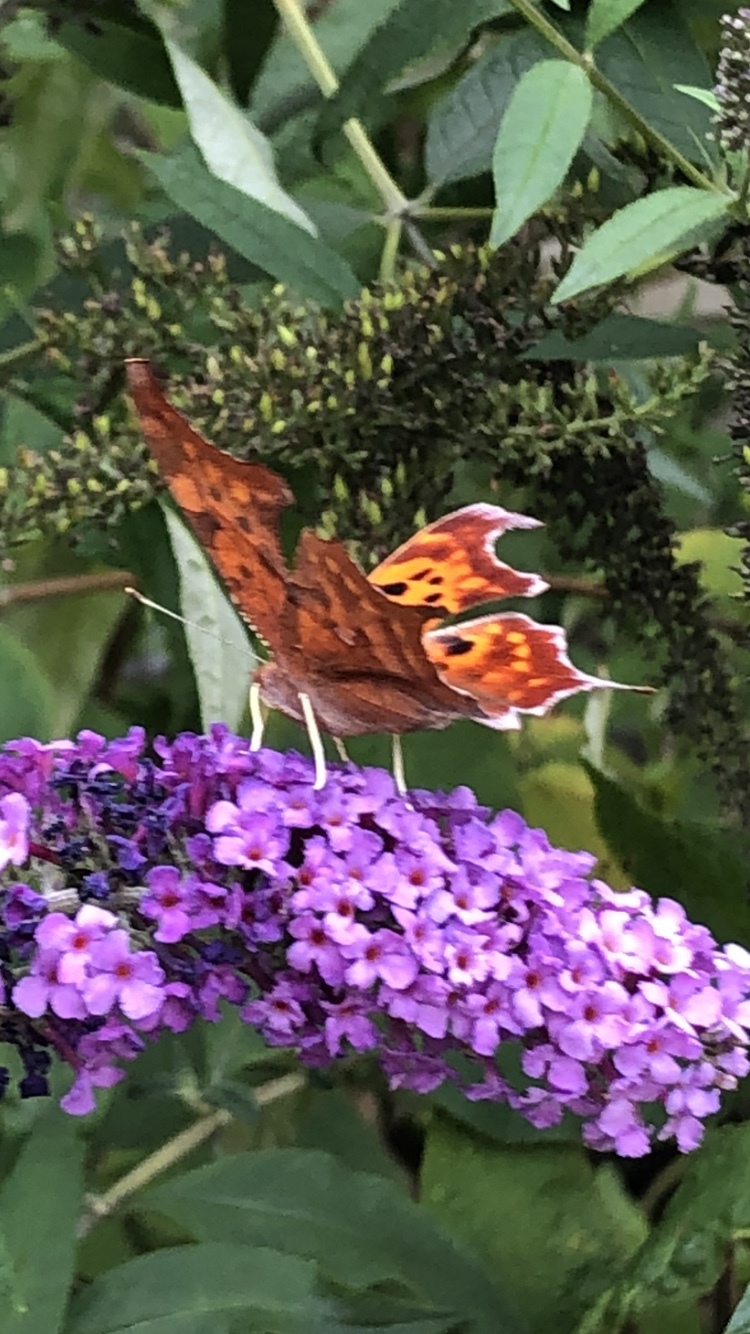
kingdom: Animalia
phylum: Arthropoda
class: Insecta
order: Lepidoptera
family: Nymphalidae
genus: Polygonia
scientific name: Polygonia interrogationis
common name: Question mark
